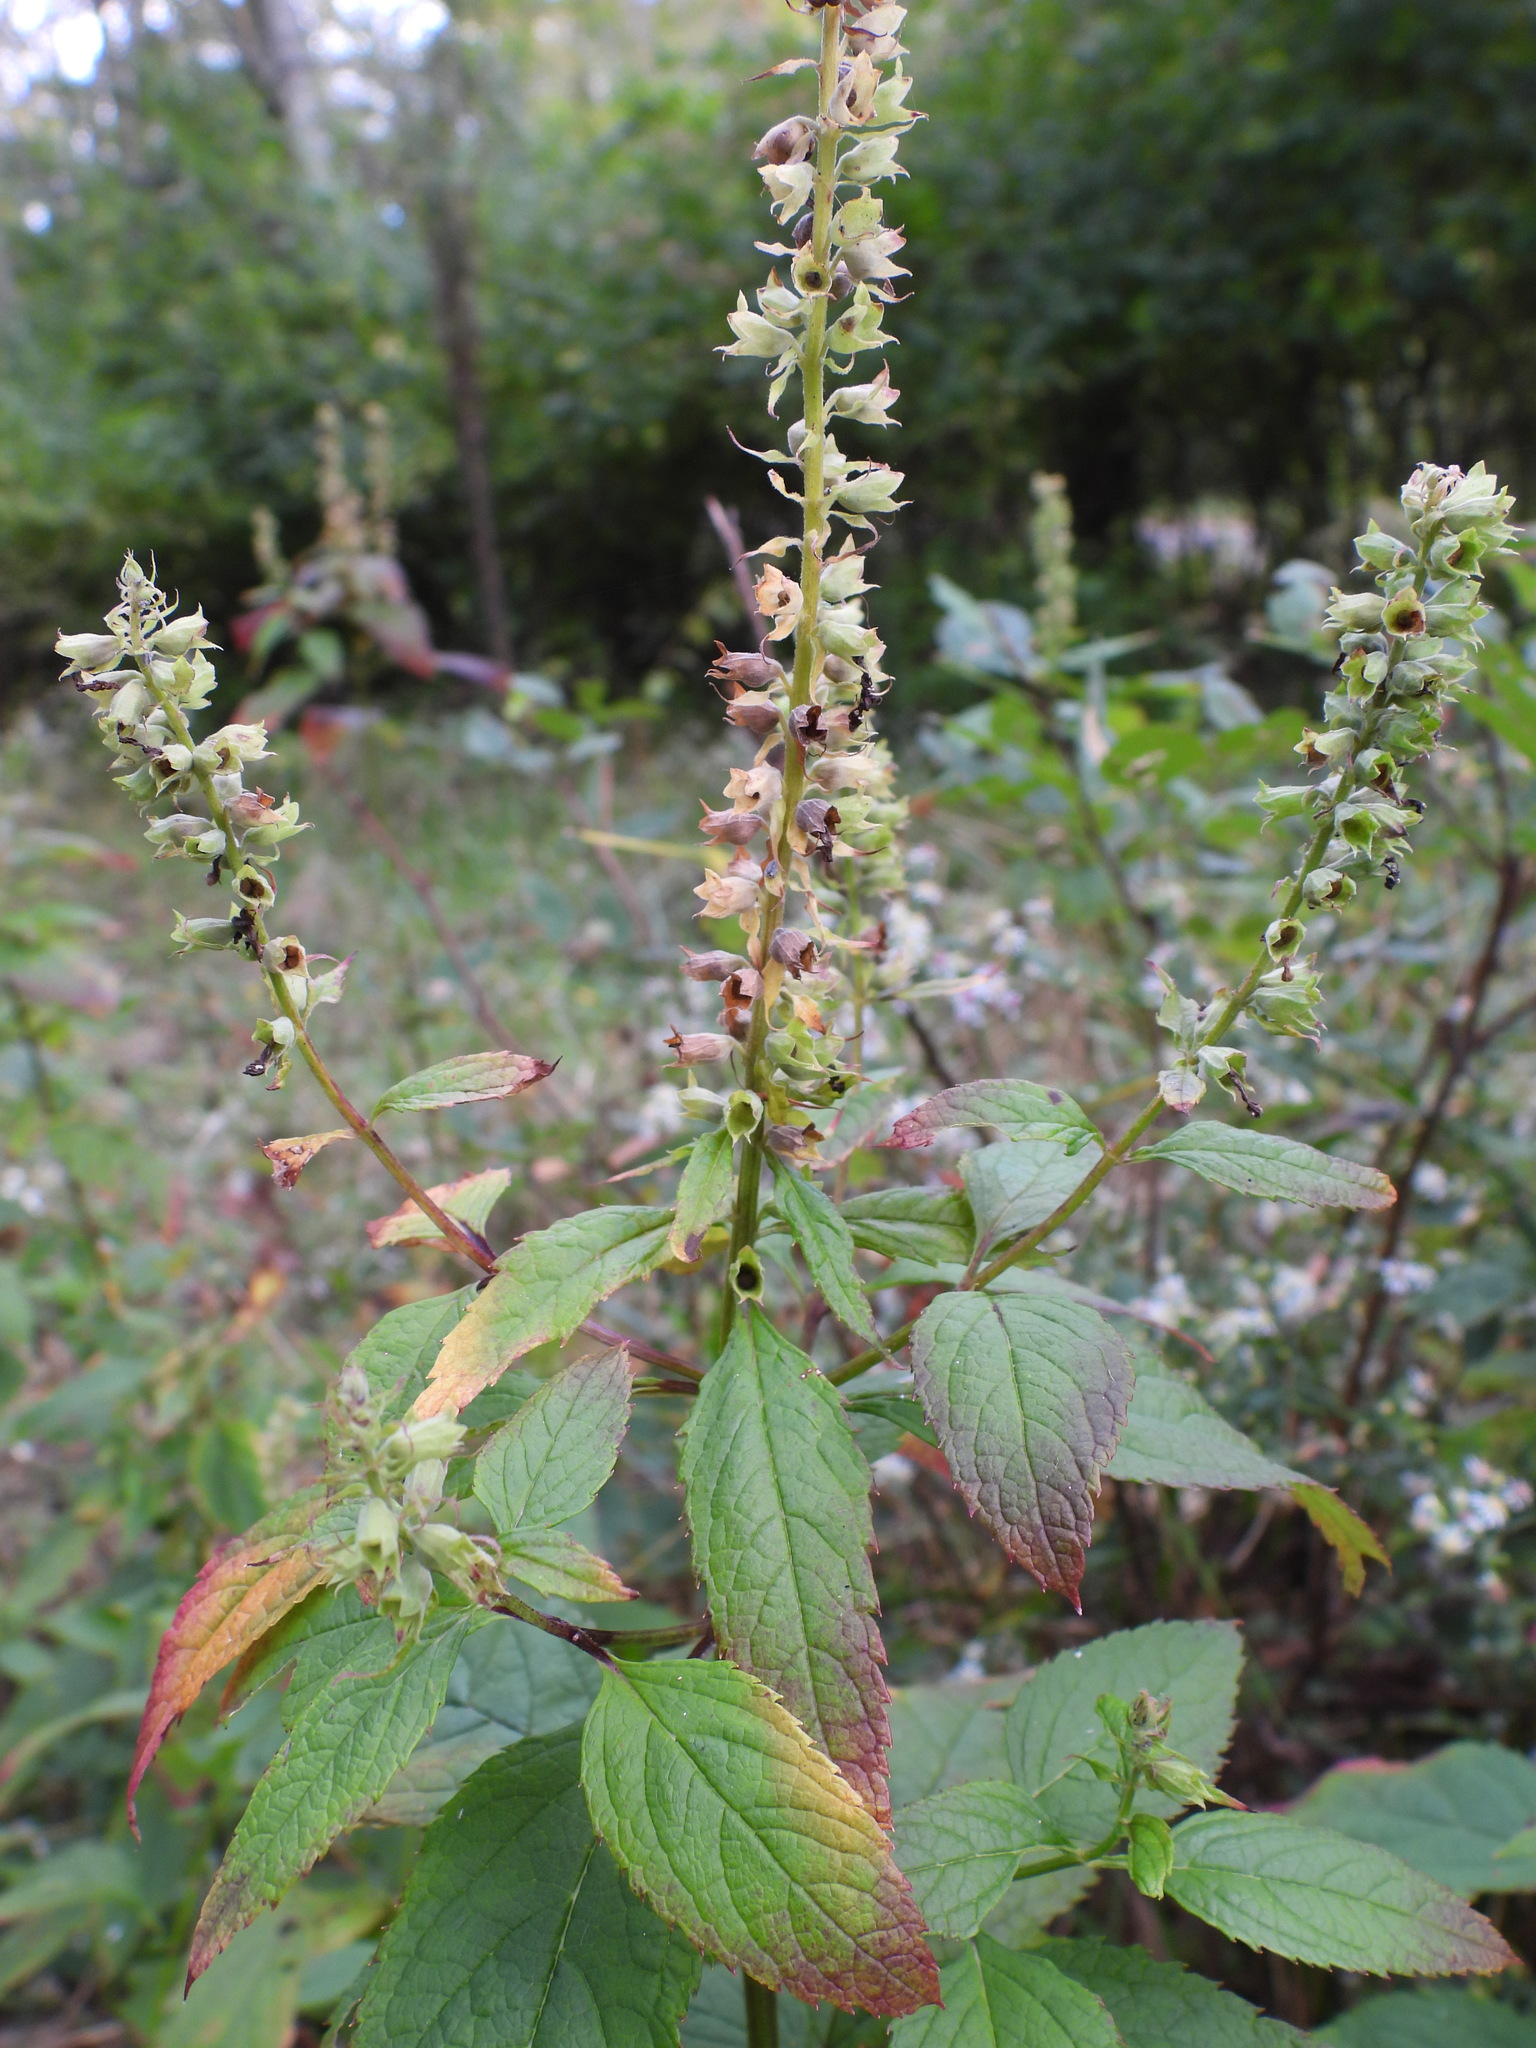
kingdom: Plantae
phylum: Tracheophyta
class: Magnoliopsida
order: Lamiales
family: Lamiaceae
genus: Teucrium
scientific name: Teucrium canadense
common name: American germander
